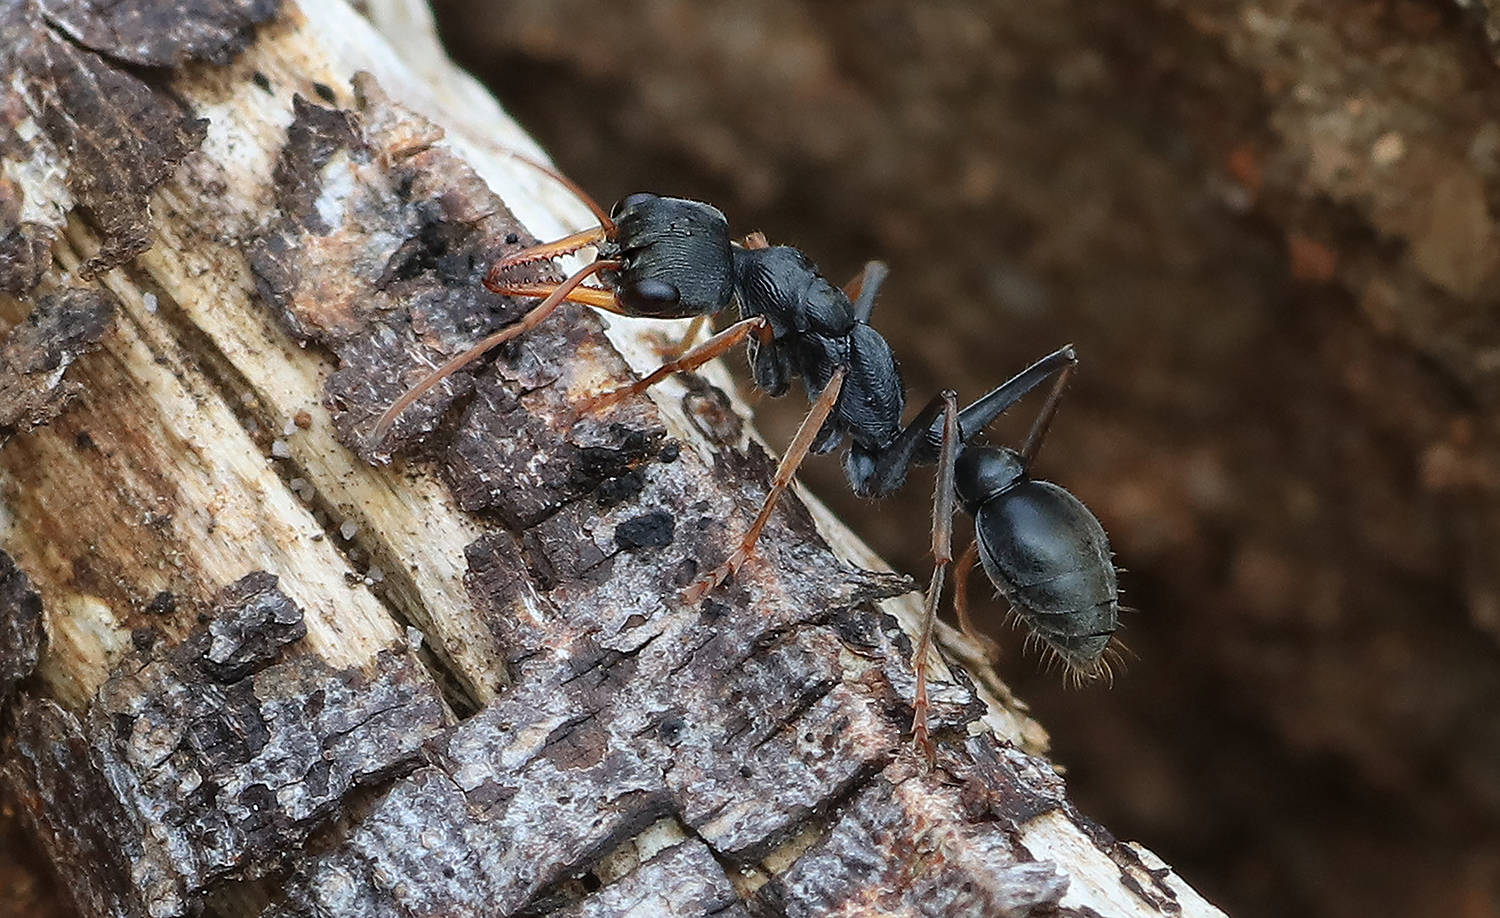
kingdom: Animalia
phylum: Arthropoda
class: Insecta
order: Hymenoptera
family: Formicidae
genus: Myrmecia
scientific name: Myrmecia pilosula
